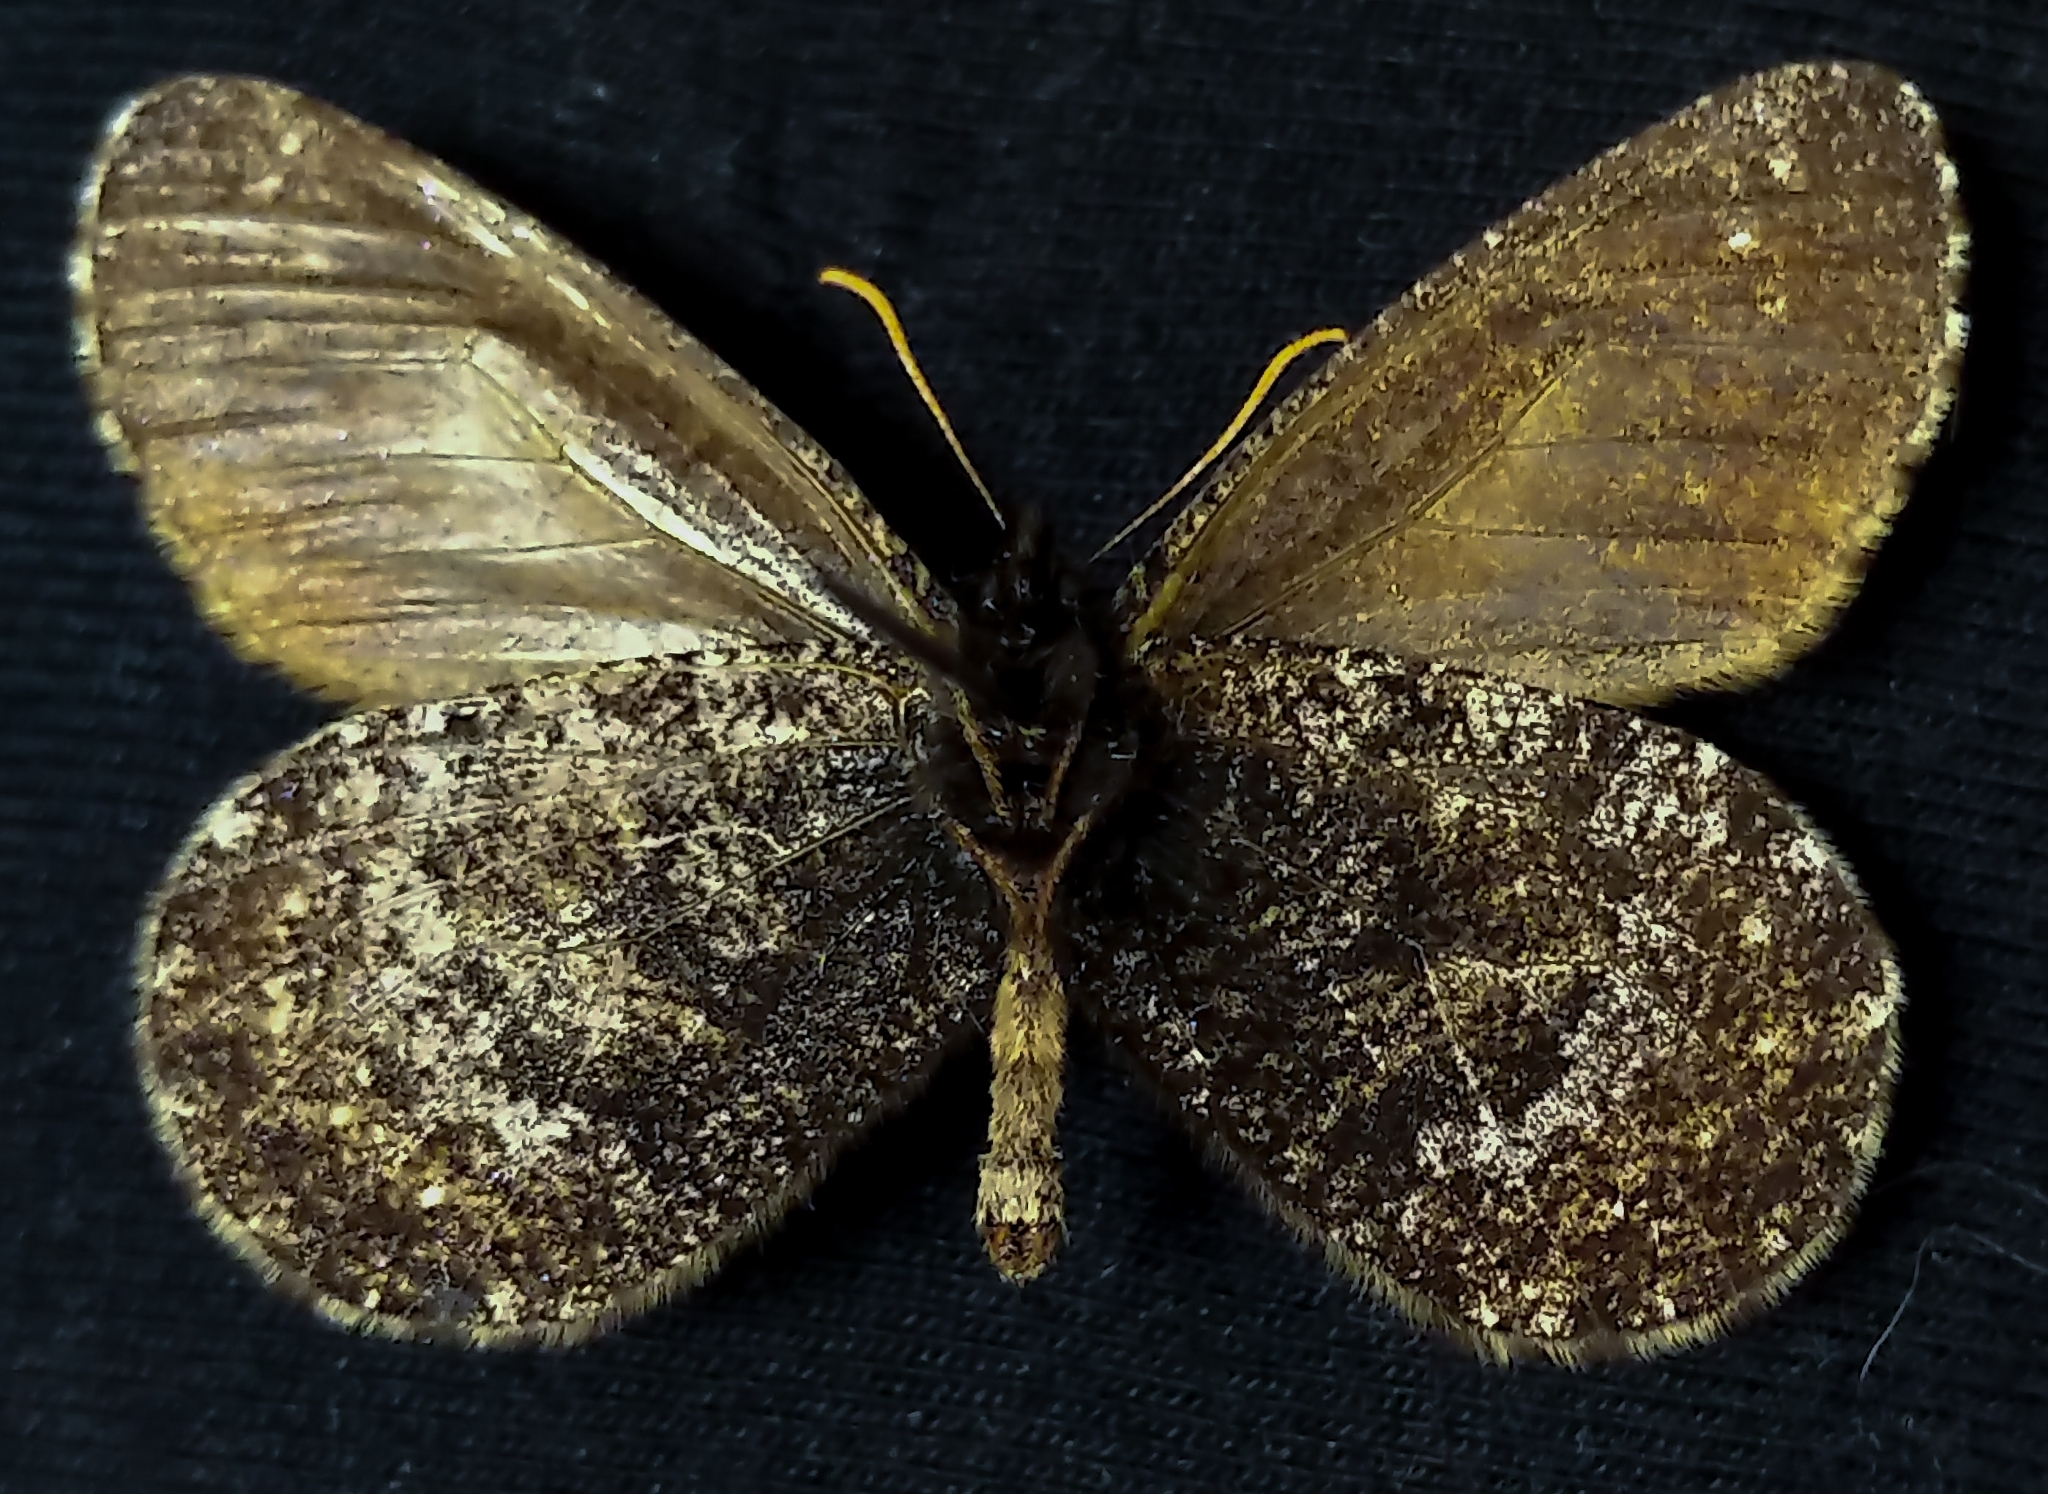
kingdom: Animalia
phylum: Arthropoda
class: Insecta
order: Lepidoptera
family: Nymphalidae
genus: Oeneis
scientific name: Oeneis melissa
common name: Melissa arctic
